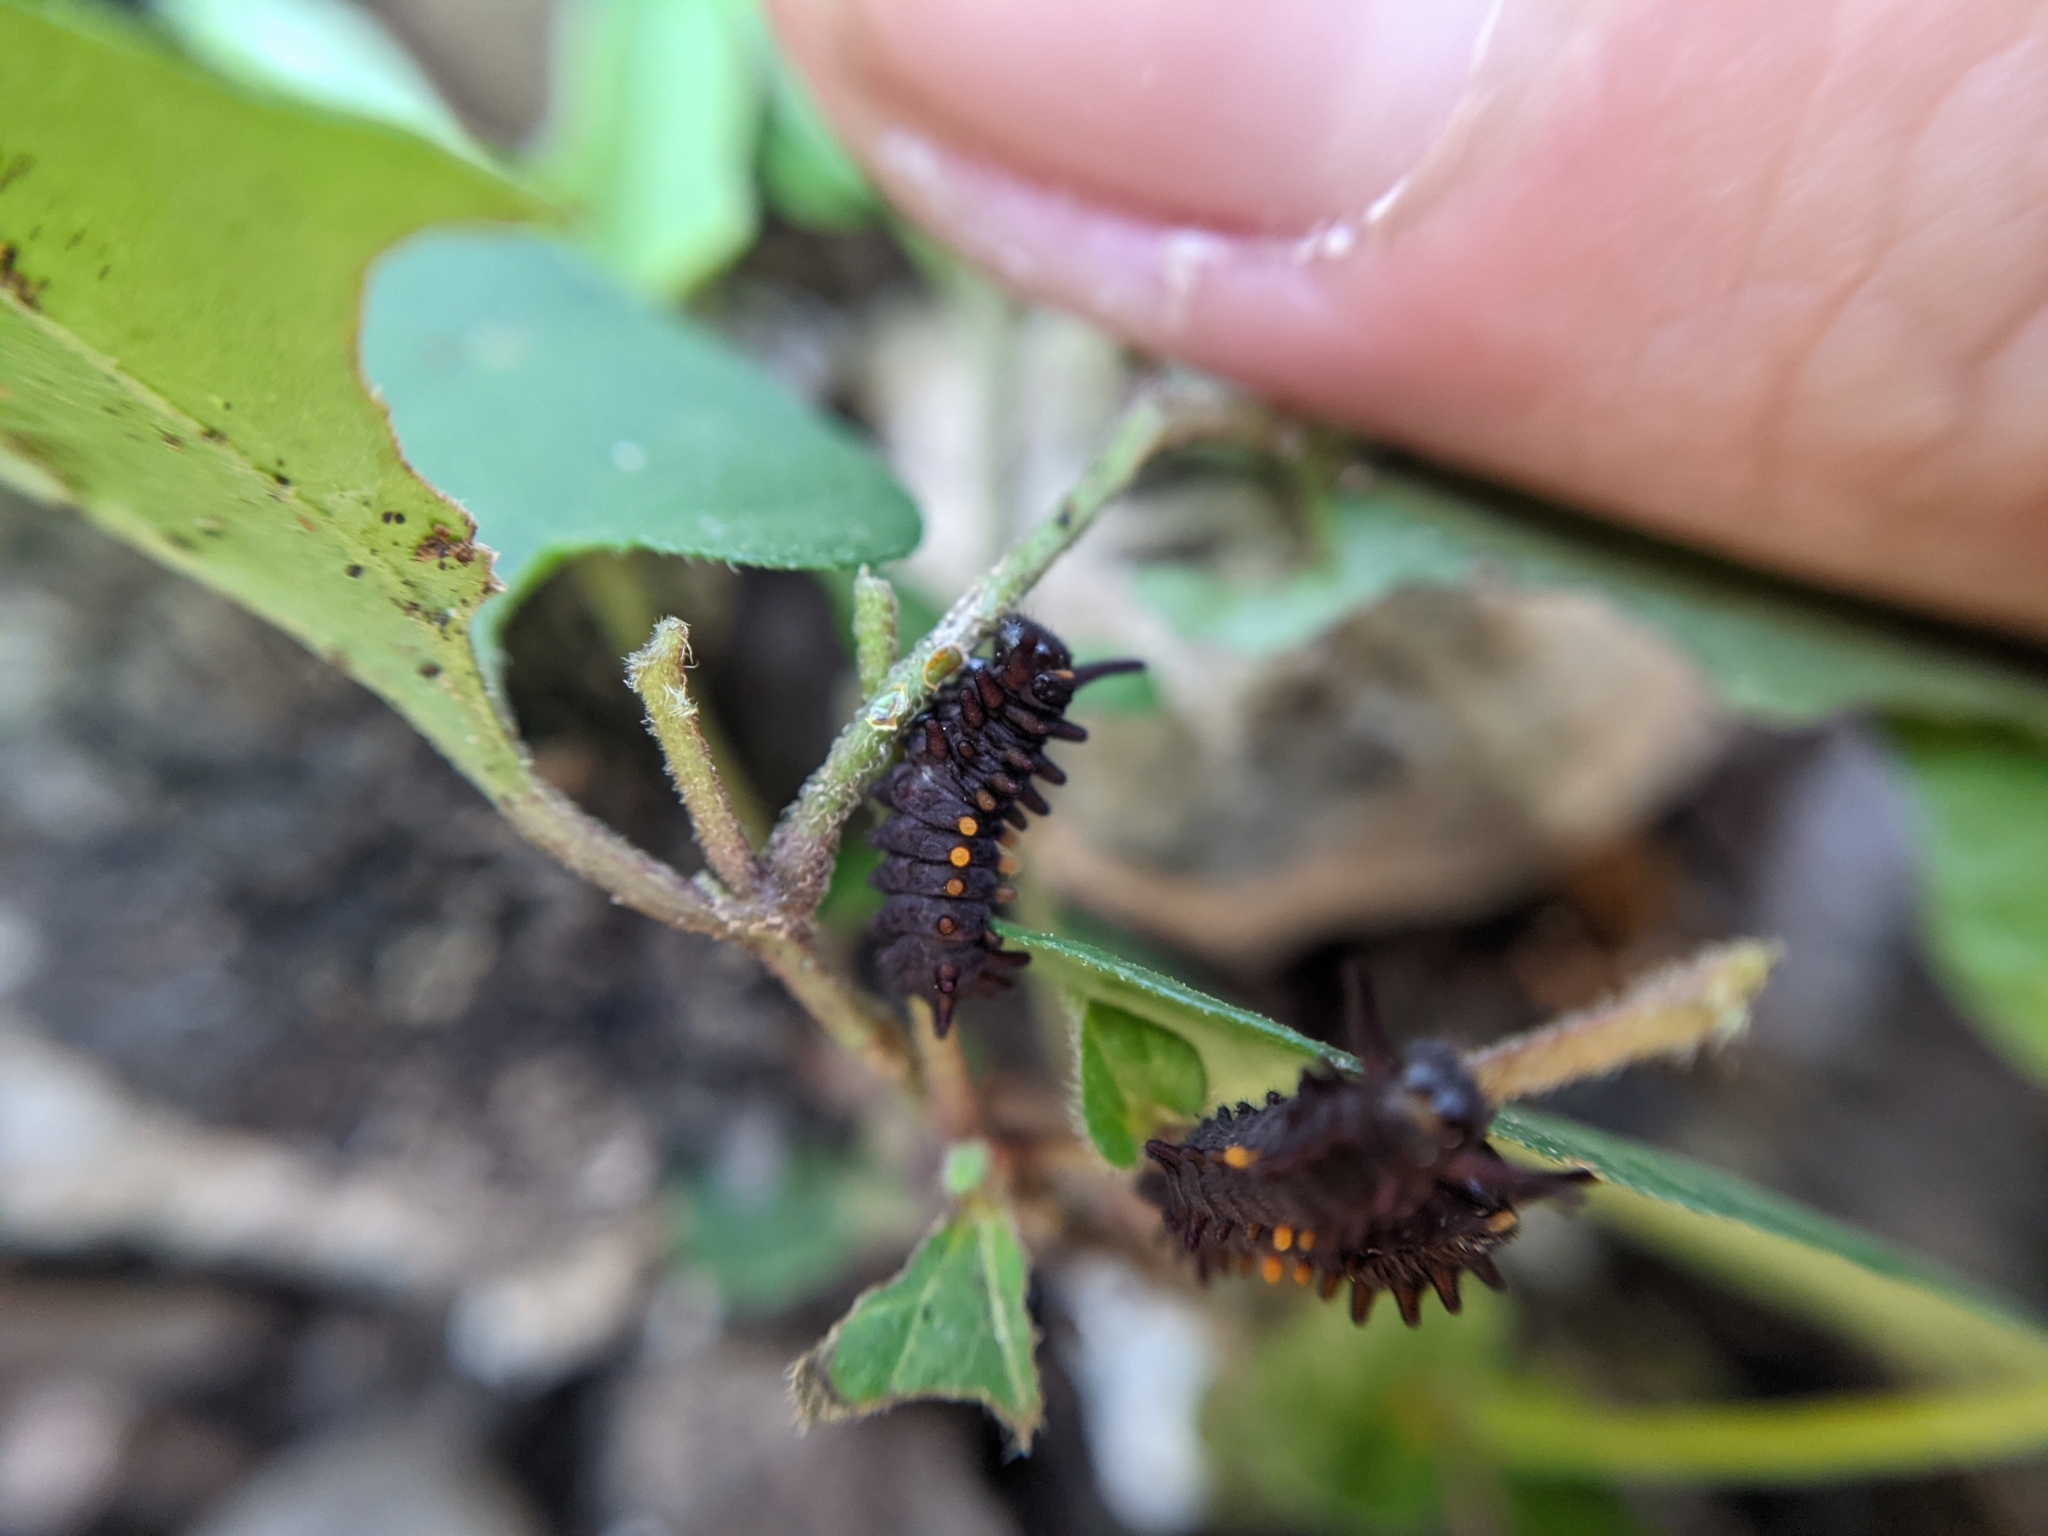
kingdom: Animalia
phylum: Arthropoda
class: Insecta
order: Lepidoptera
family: Papilionidae
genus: Battus
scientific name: Battus philenor
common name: Pipevine swallowtail
